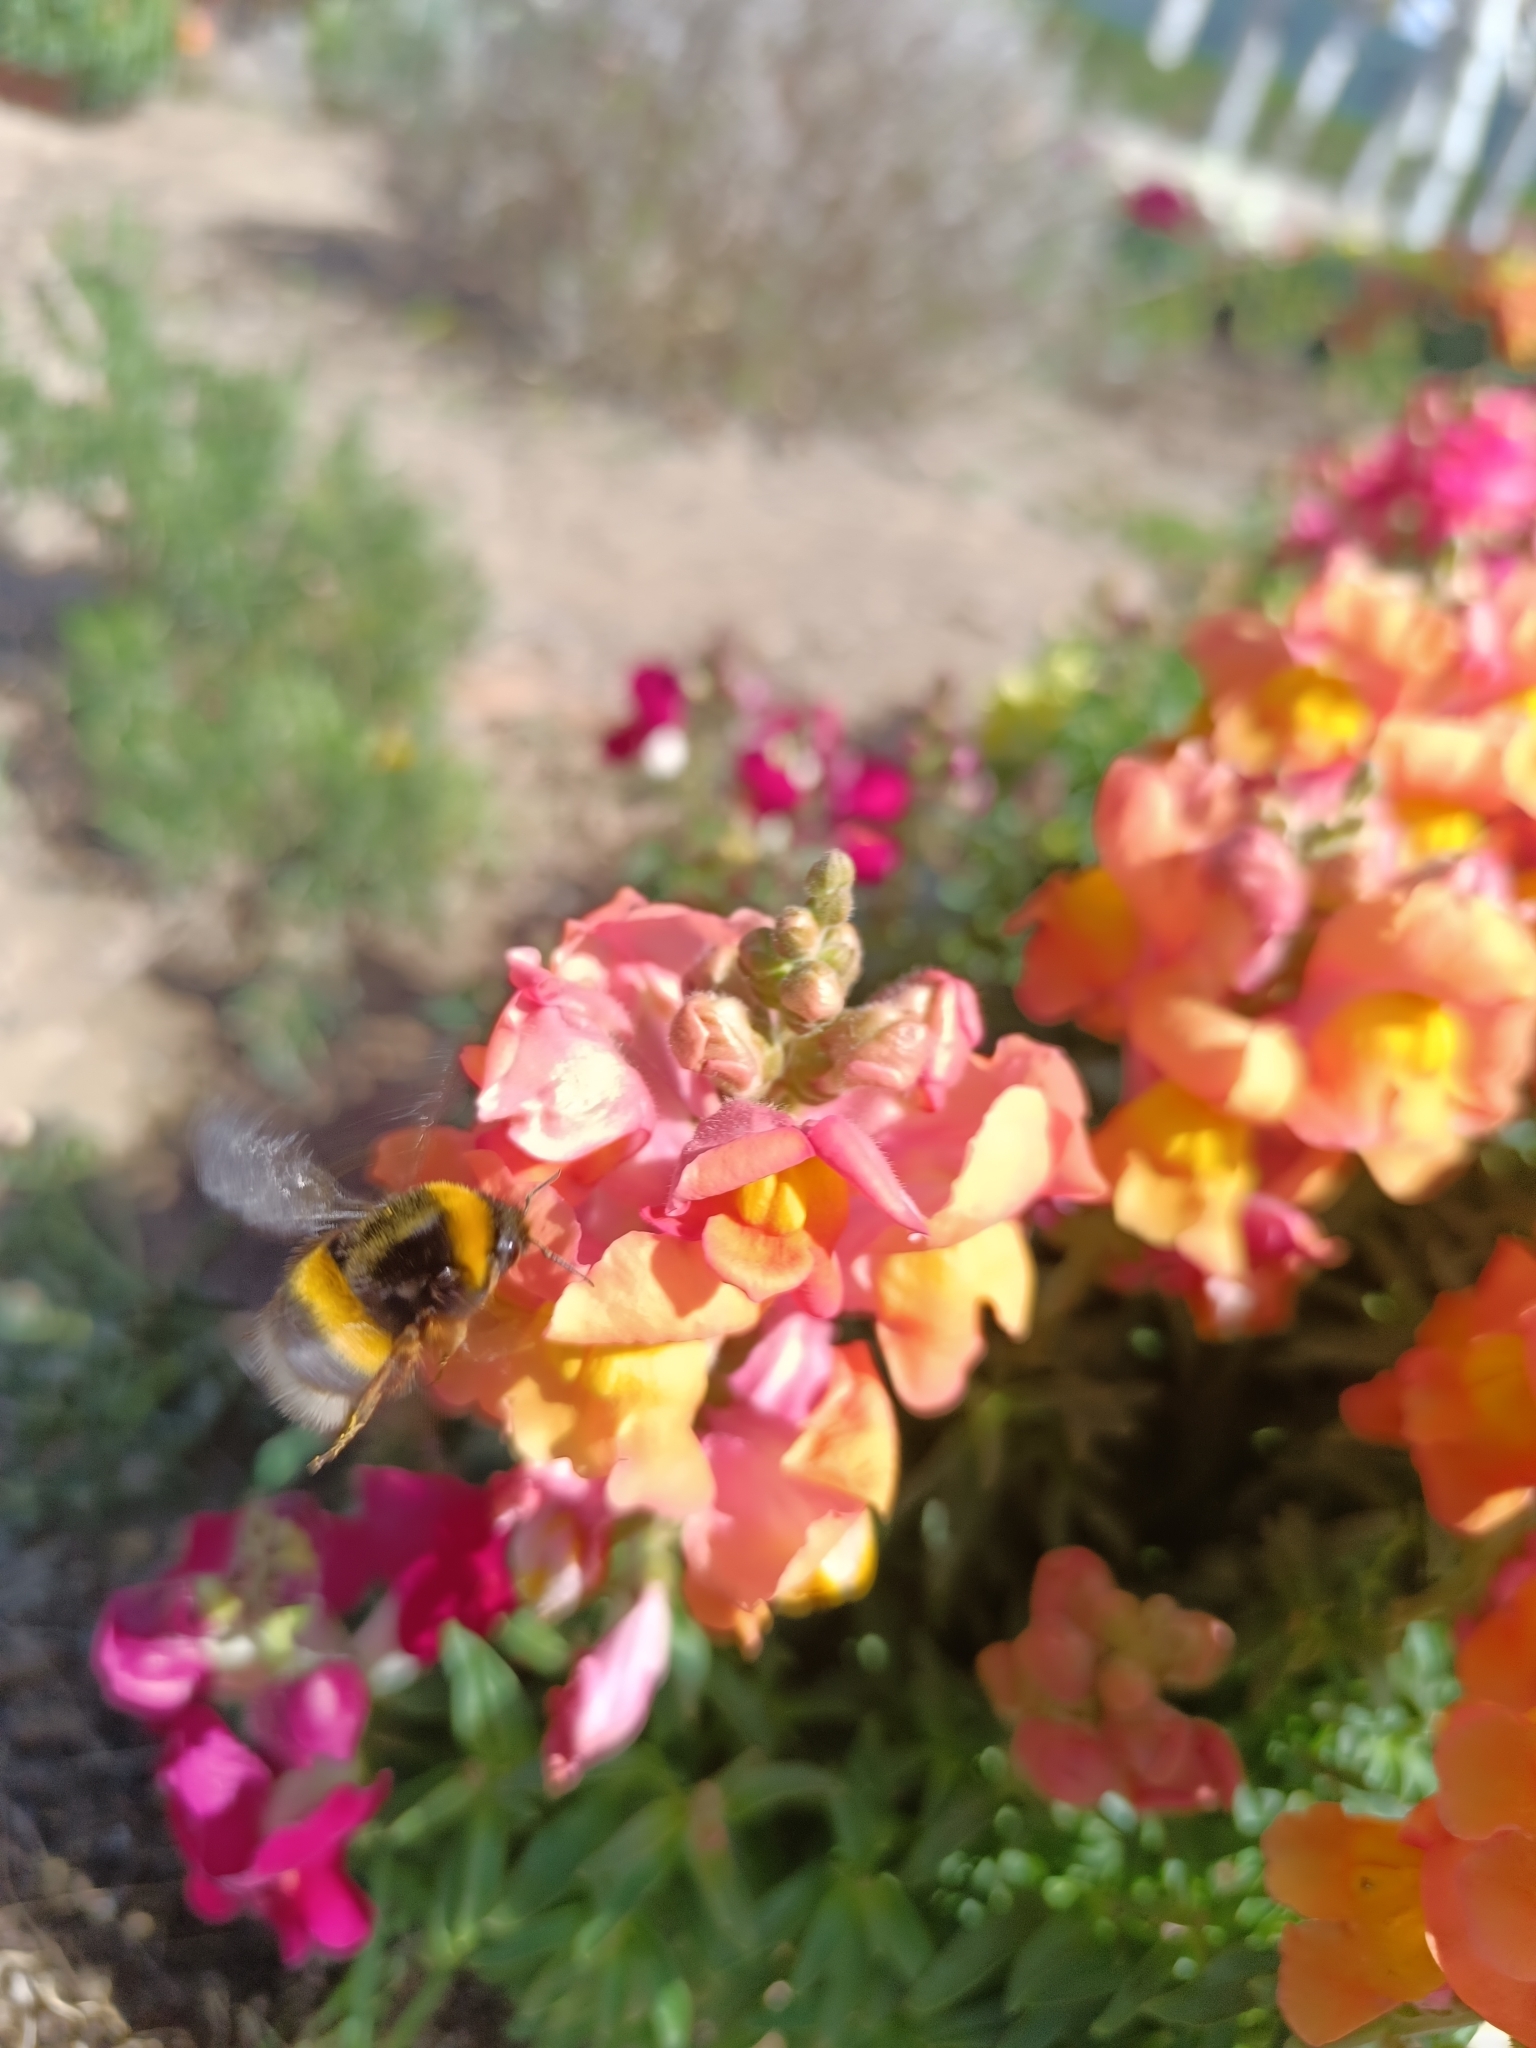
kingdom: Animalia
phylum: Arthropoda
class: Insecta
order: Hymenoptera
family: Apidae
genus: Bombus
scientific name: Bombus terrestris
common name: Buff-tailed bumblebee
